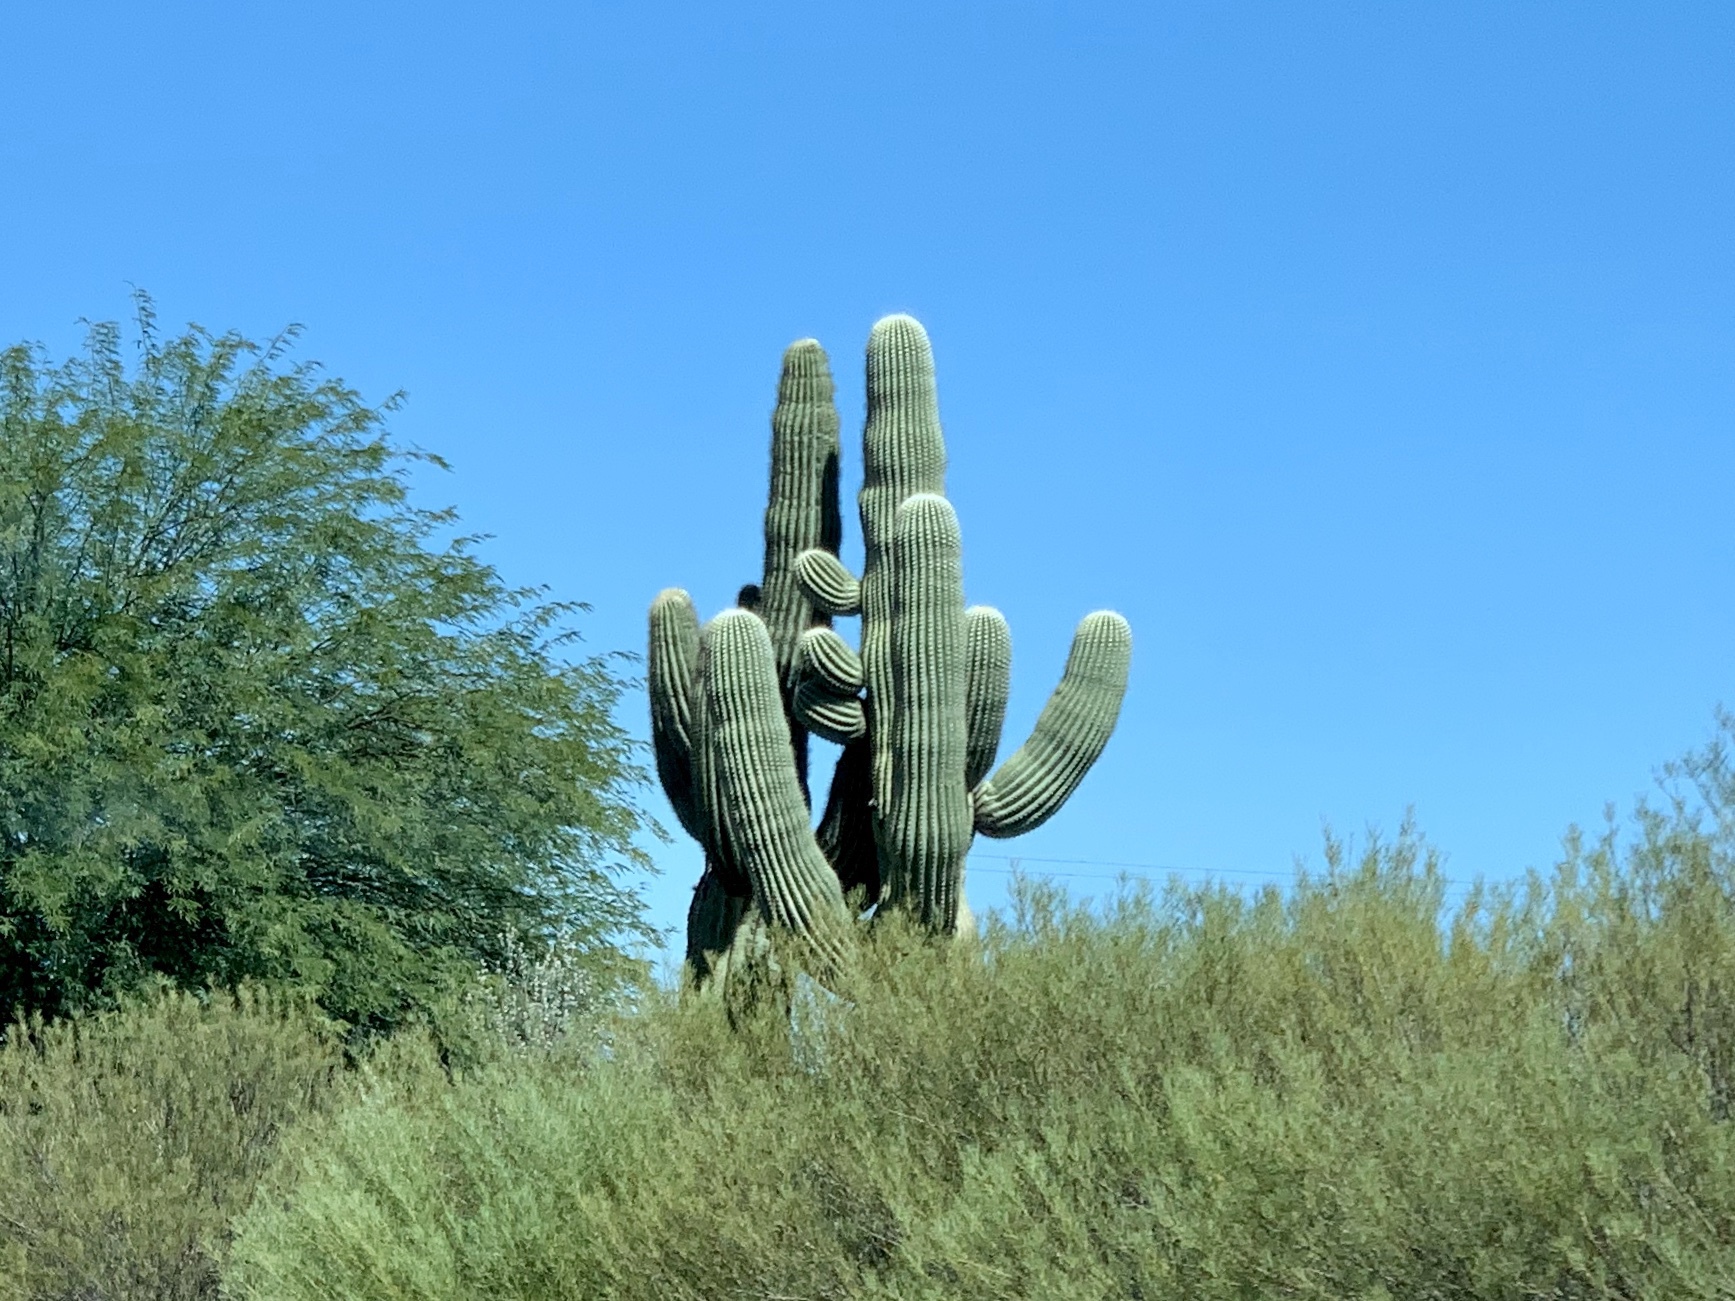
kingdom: Plantae
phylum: Tracheophyta
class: Magnoliopsida
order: Caryophyllales
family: Cactaceae
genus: Carnegiea
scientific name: Carnegiea gigantea
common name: Saguaro
